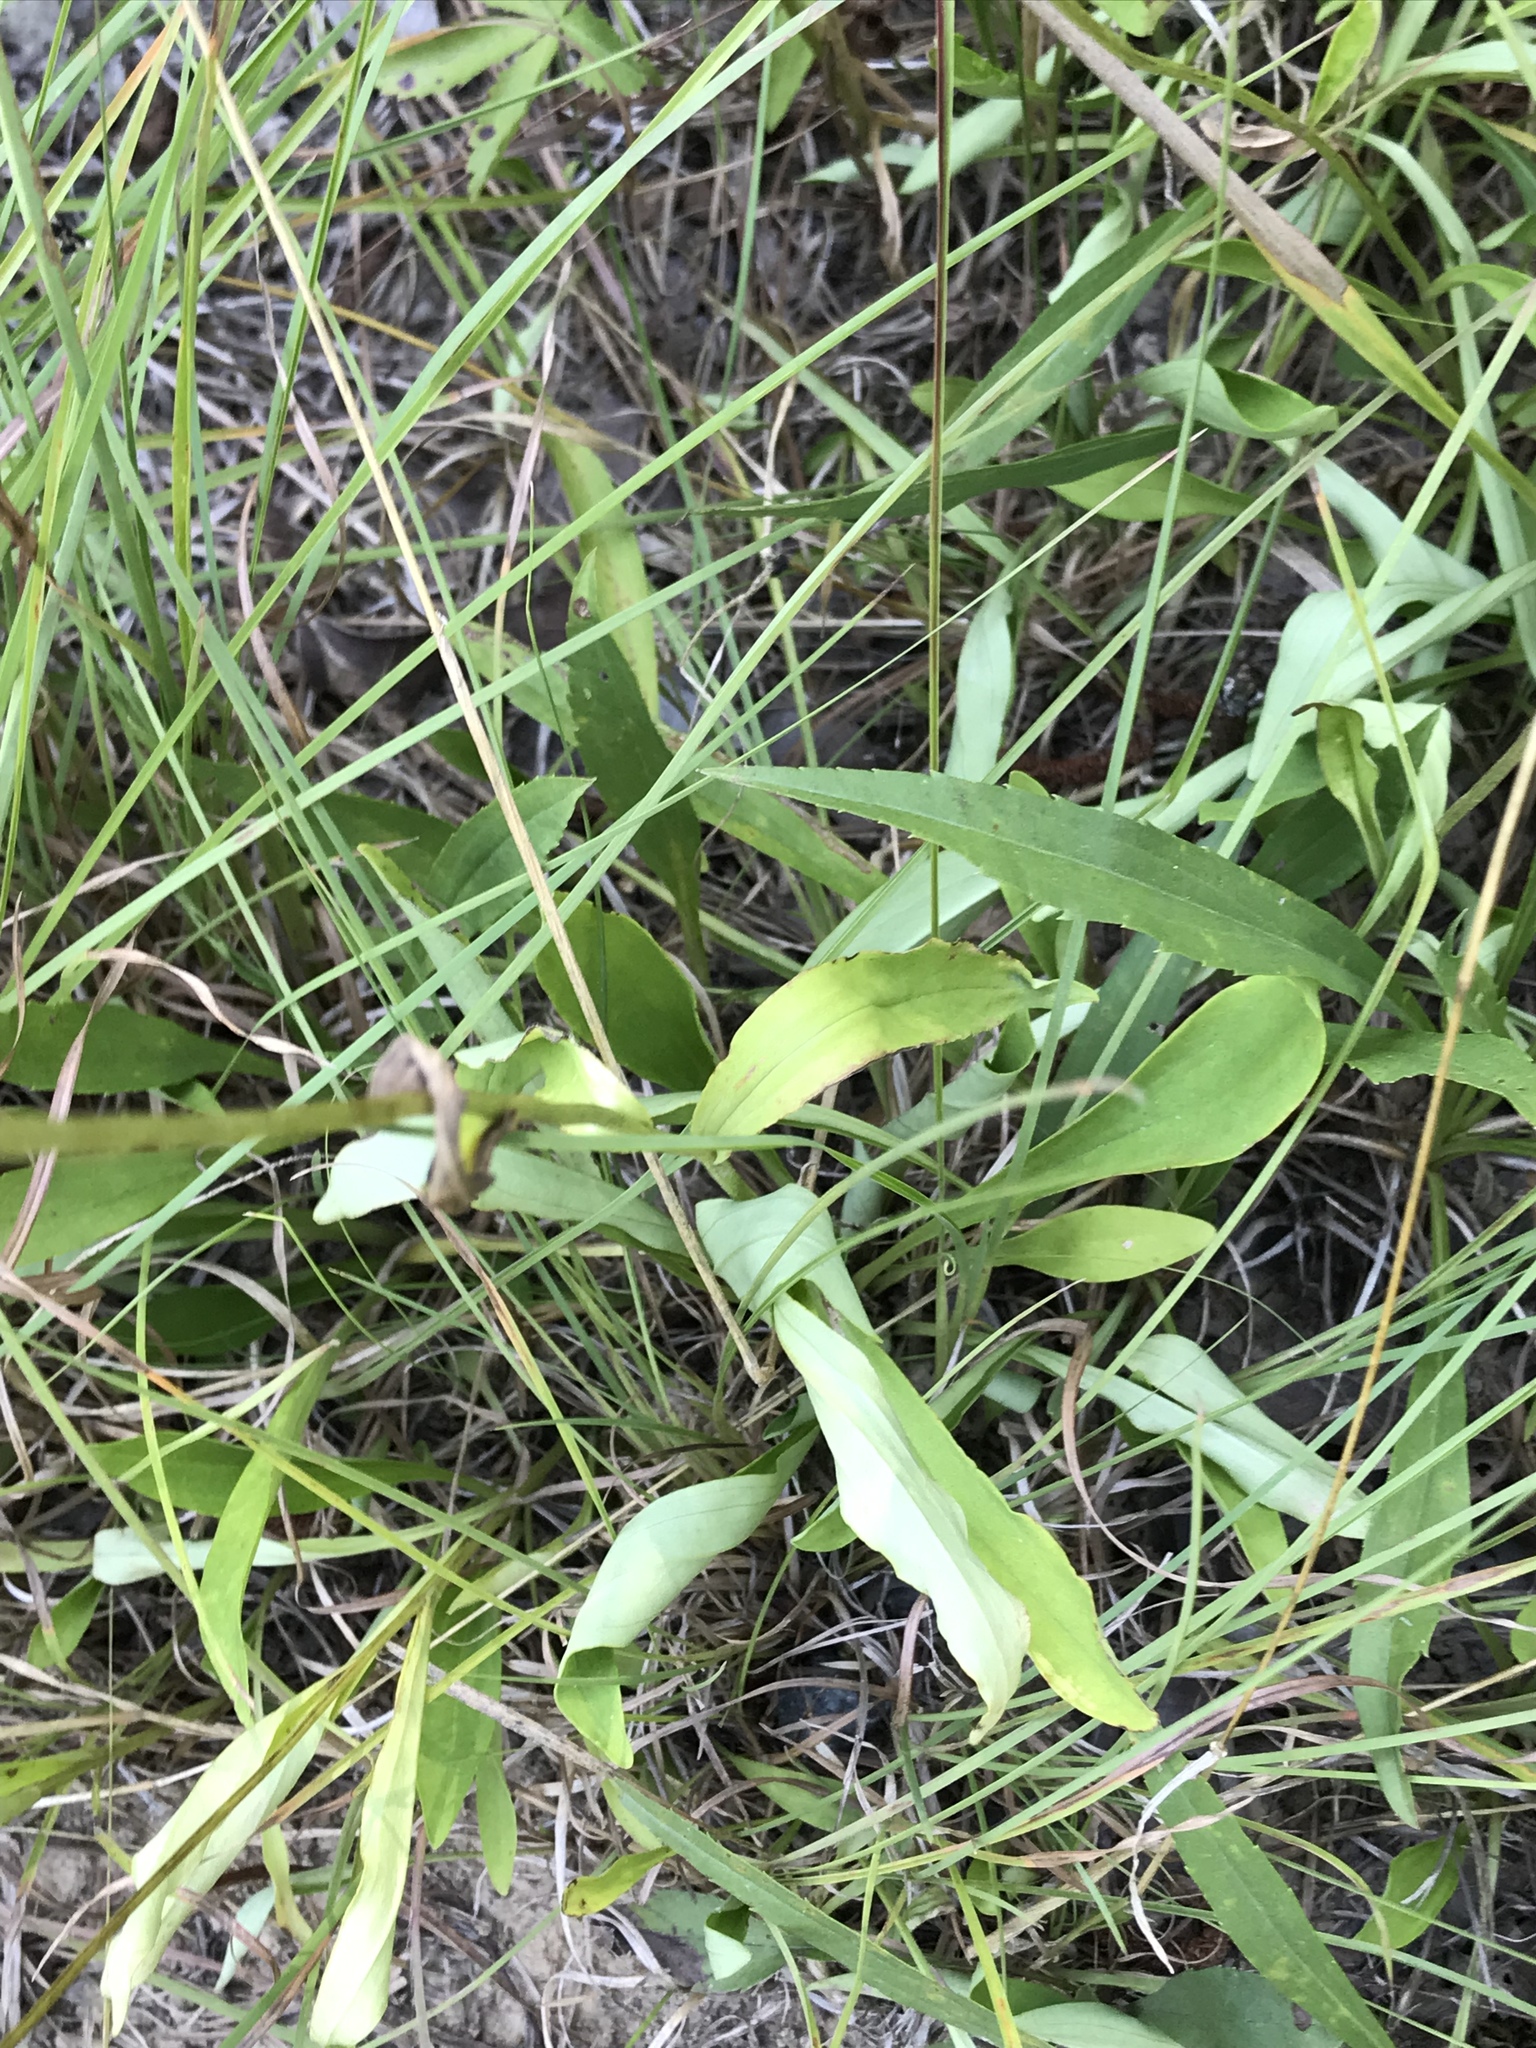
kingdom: Plantae
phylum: Tracheophyta
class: Magnoliopsida
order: Asterales
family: Asteraceae
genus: Marshallia
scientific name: Marshallia obovata
